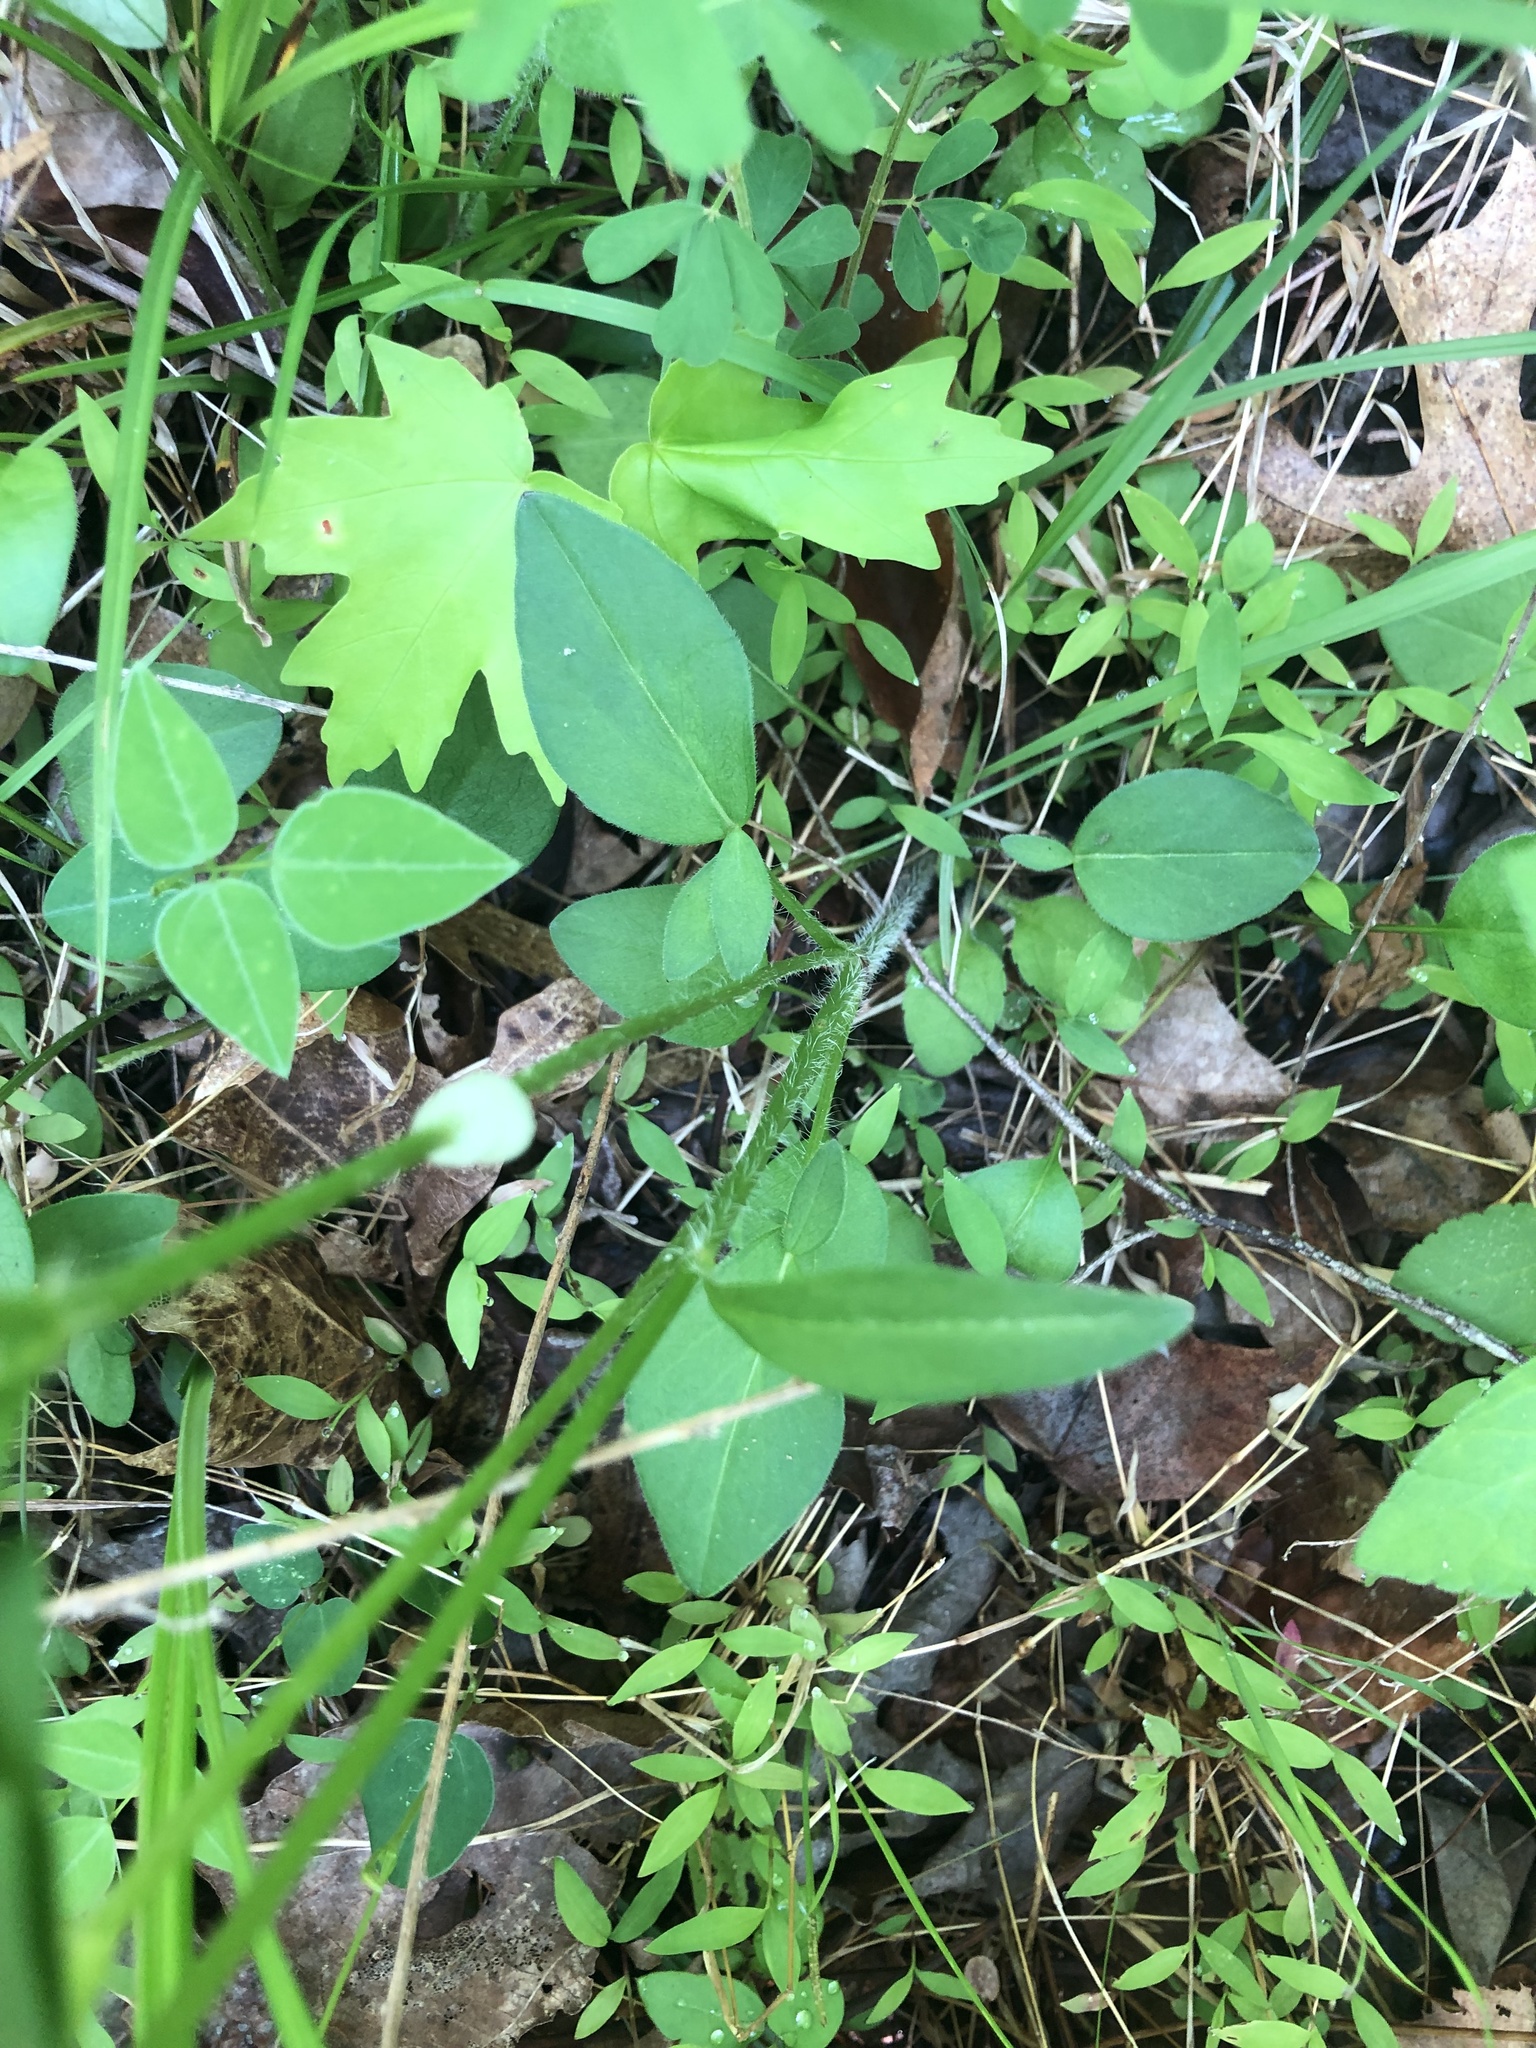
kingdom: Plantae
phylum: Tracheophyta
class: Magnoliopsida
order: Asterales
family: Asteraceae
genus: Coreopsis
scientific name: Coreopsis auriculata
